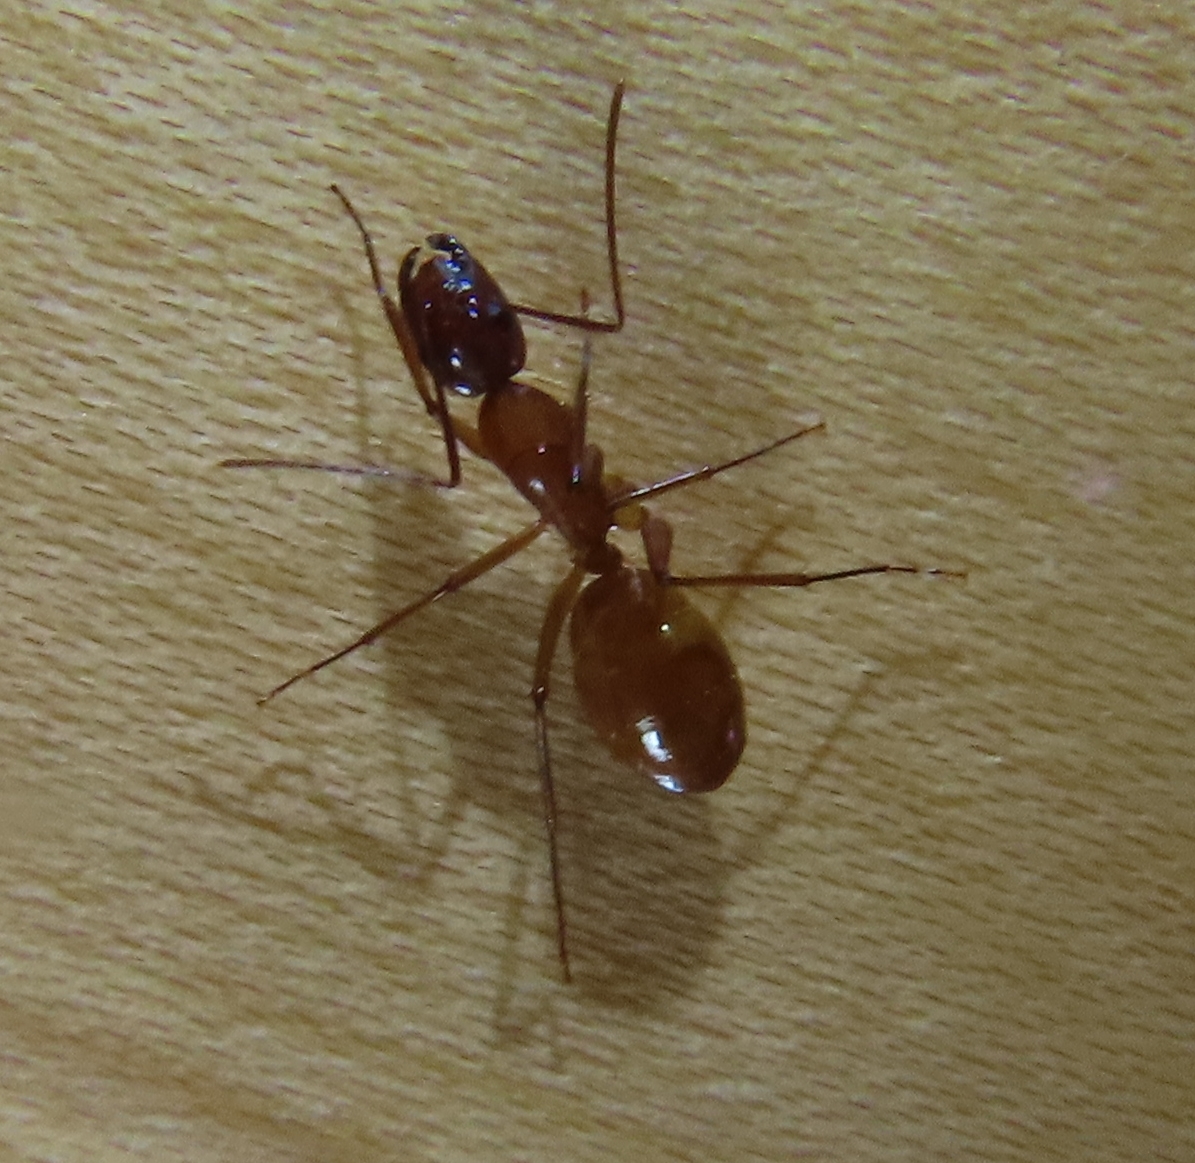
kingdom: Animalia
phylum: Arthropoda
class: Insecta
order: Hymenoptera
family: Formicidae
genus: Camponotus
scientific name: Camponotus castaneus
